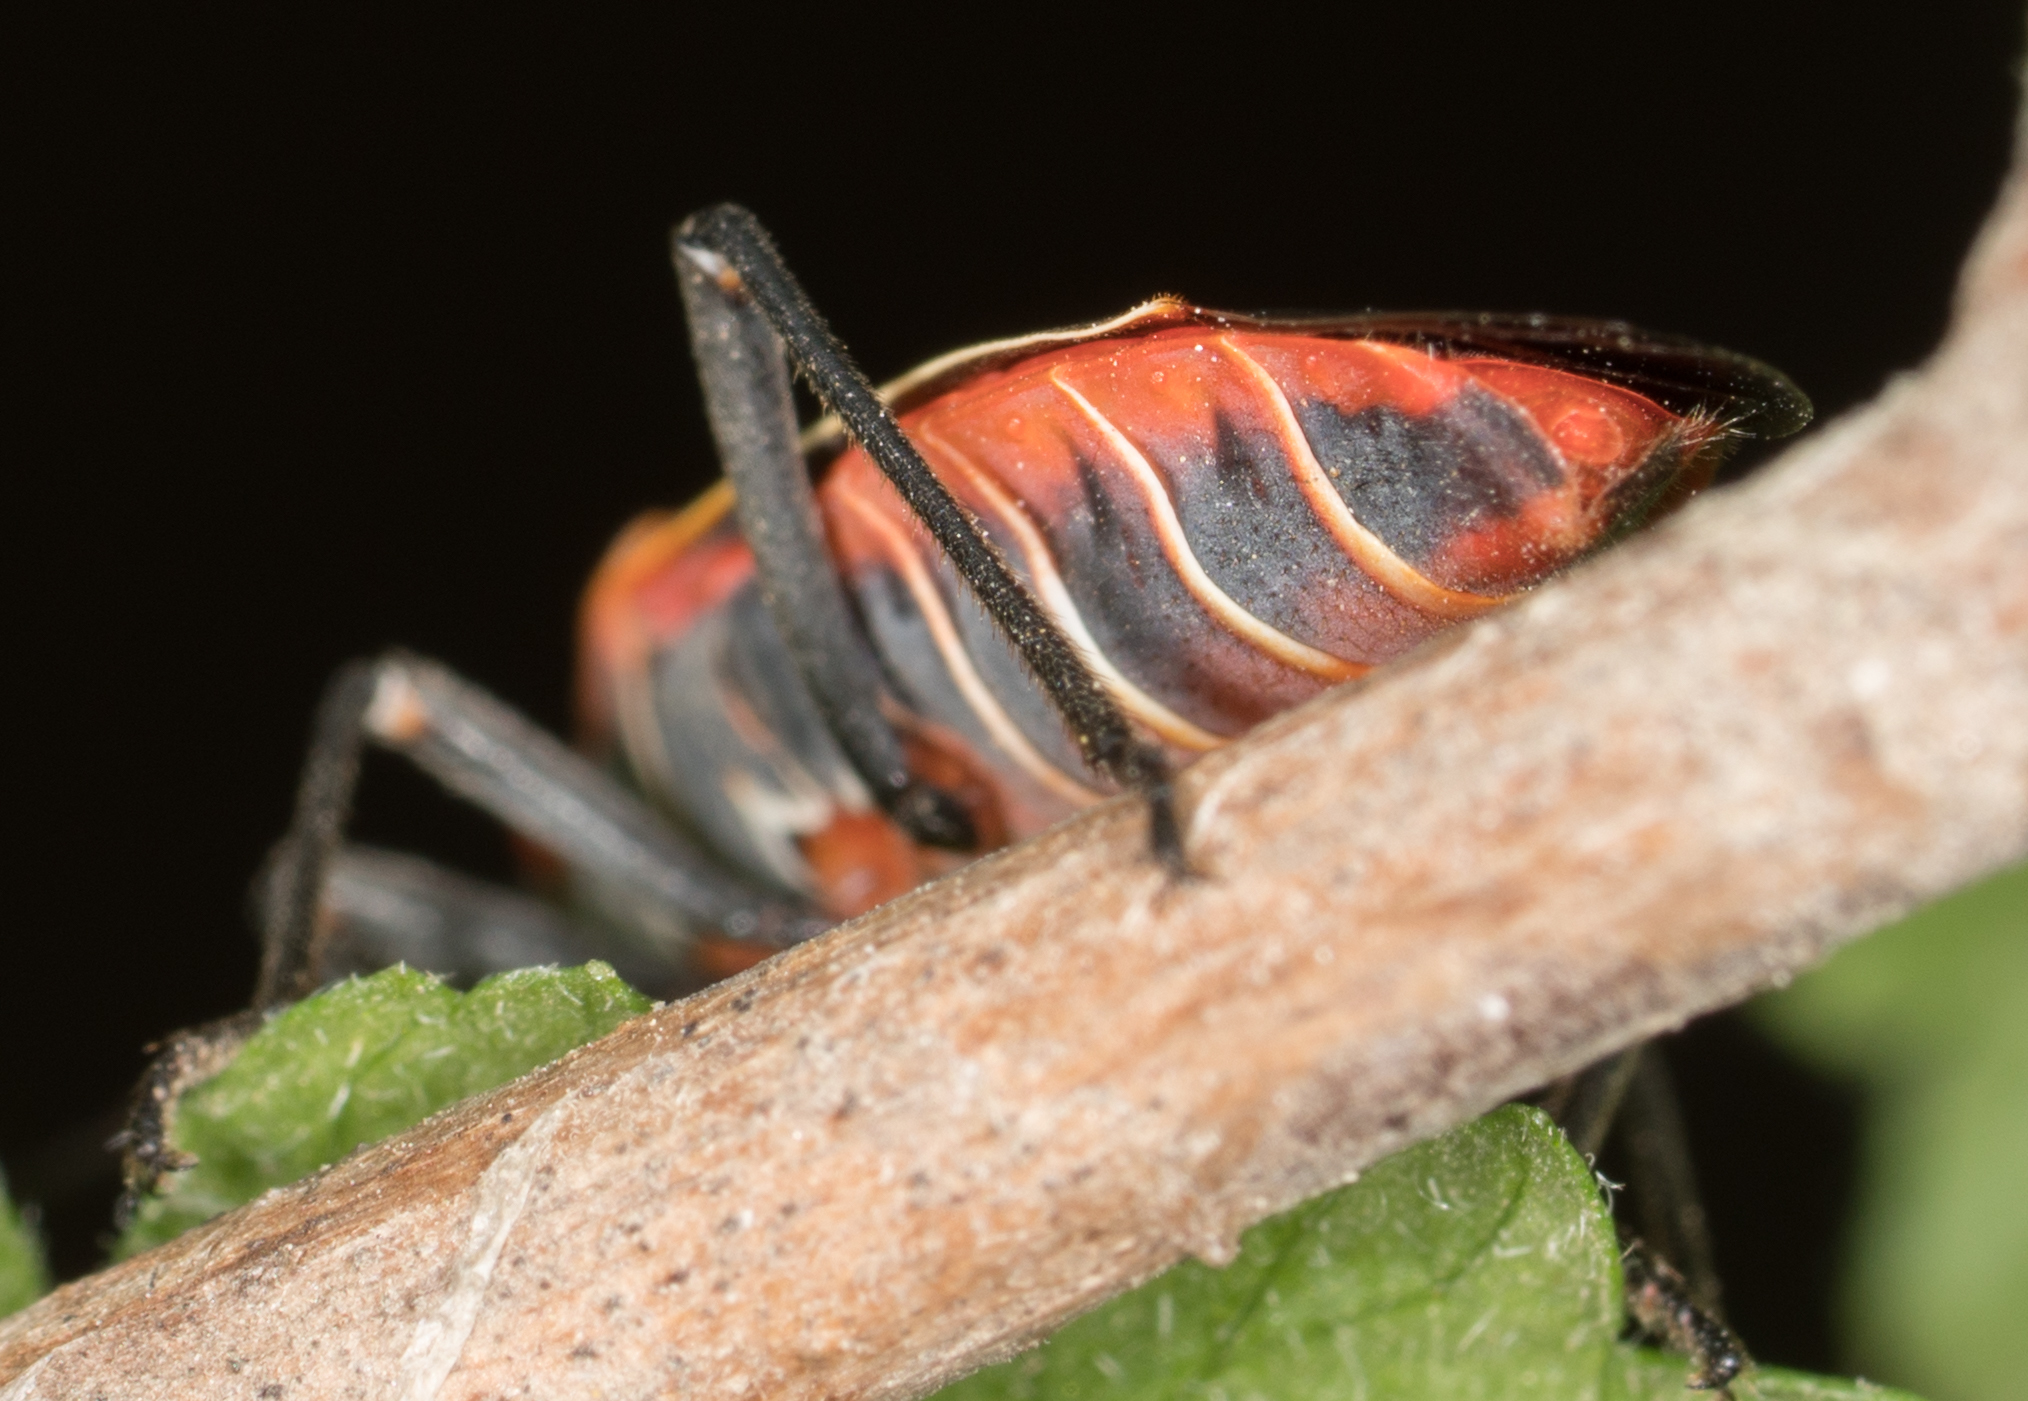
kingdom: Animalia
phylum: Arthropoda
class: Insecta
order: Hemiptera
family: Rhopalidae
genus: Boisea
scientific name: Boisea rubrolineata
